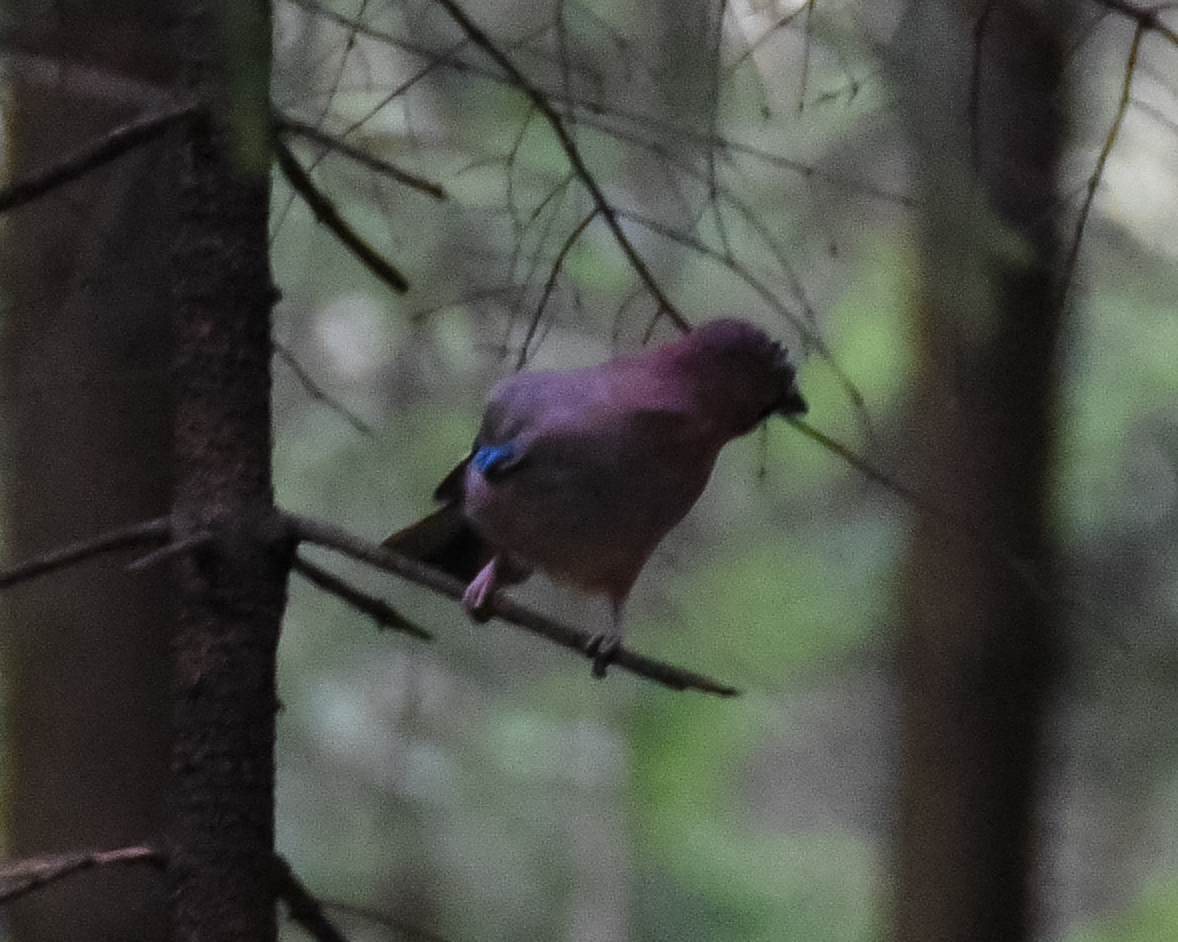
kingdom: Animalia
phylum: Chordata
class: Aves
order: Passeriformes
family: Corvidae
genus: Garrulus
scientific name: Garrulus glandarius
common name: Eurasian jay
